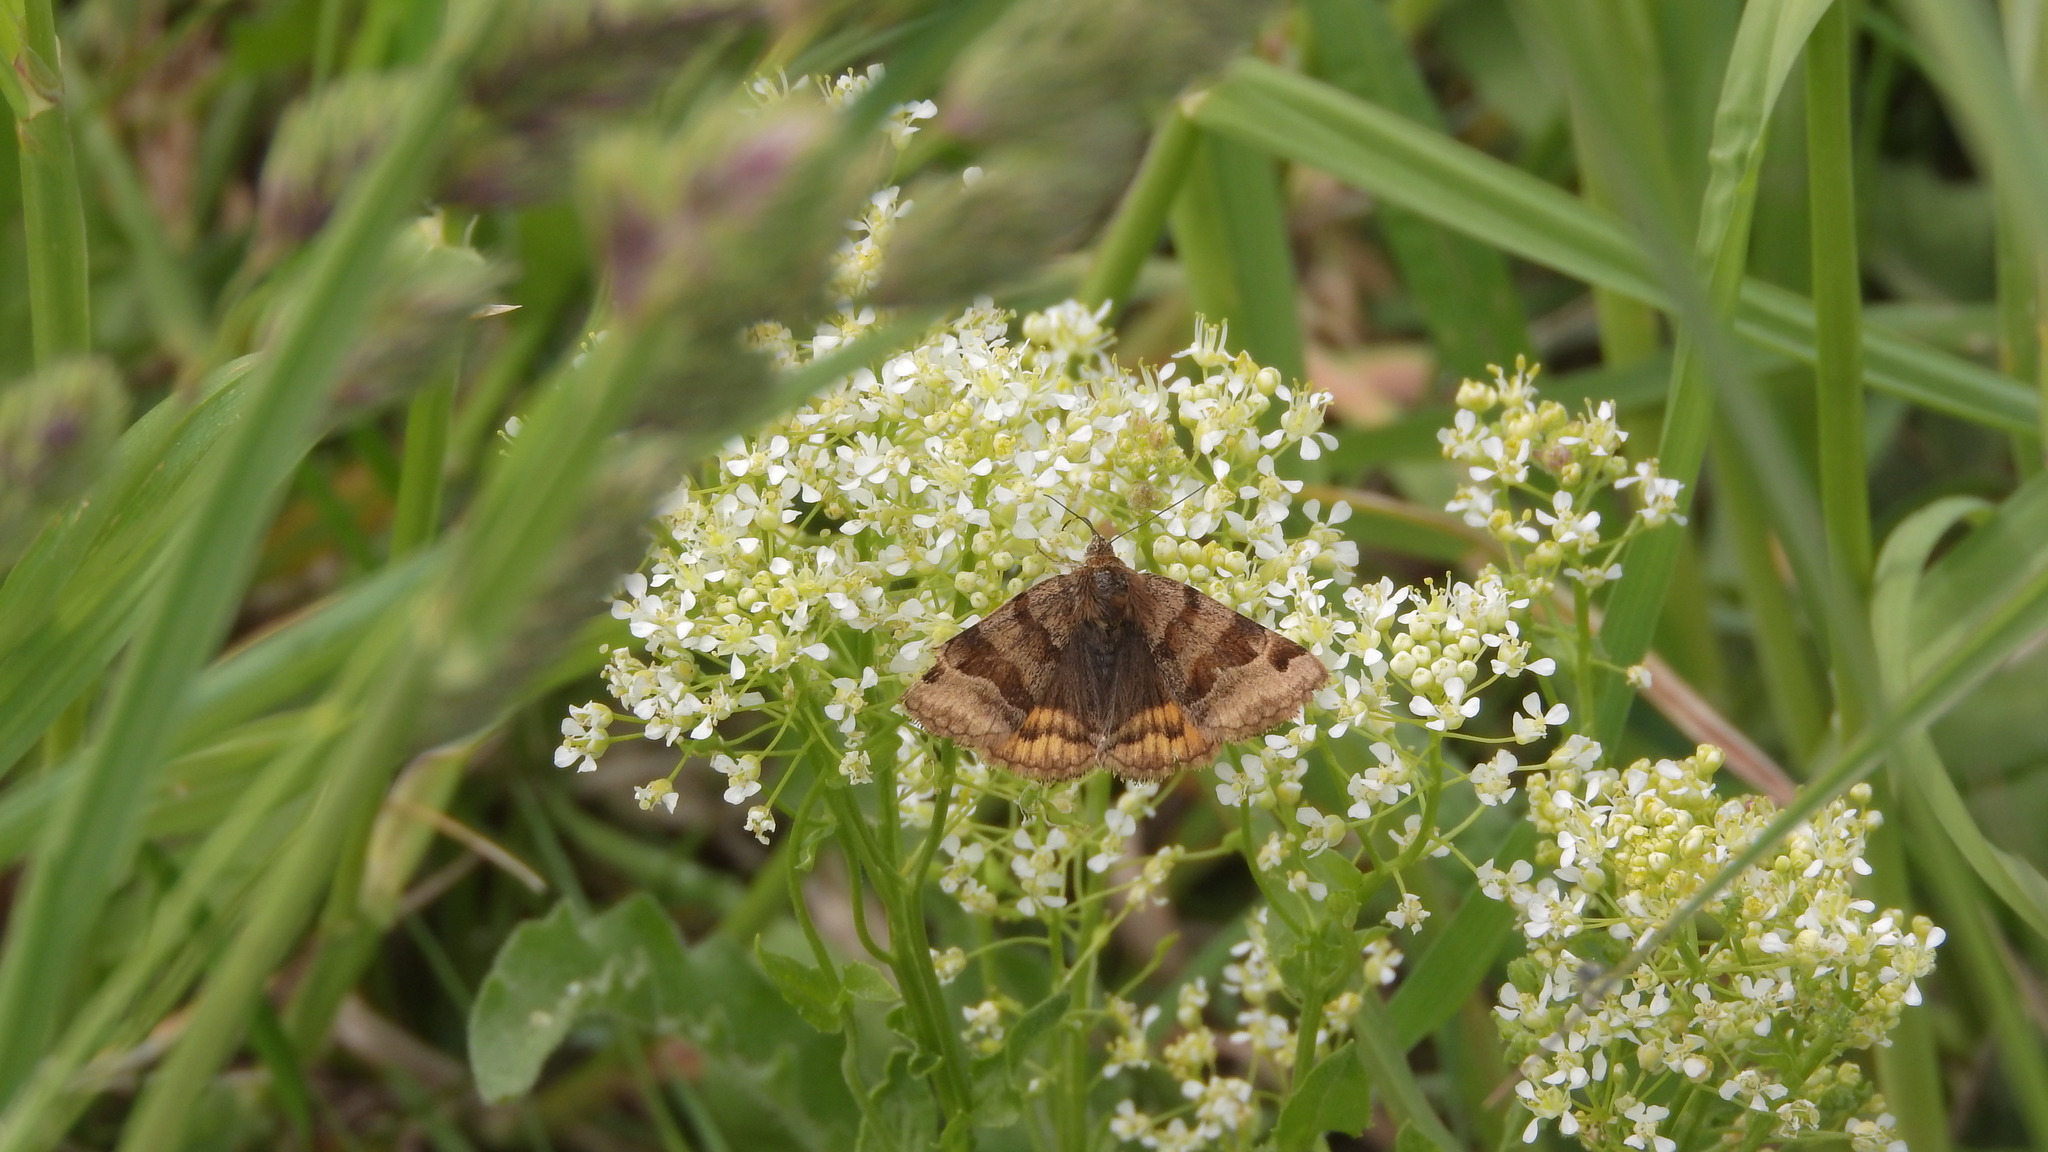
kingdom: Animalia
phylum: Arthropoda
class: Insecta
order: Lepidoptera
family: Erebidae
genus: Euclidia
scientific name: Euclidia glyphica
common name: Burnet companion
